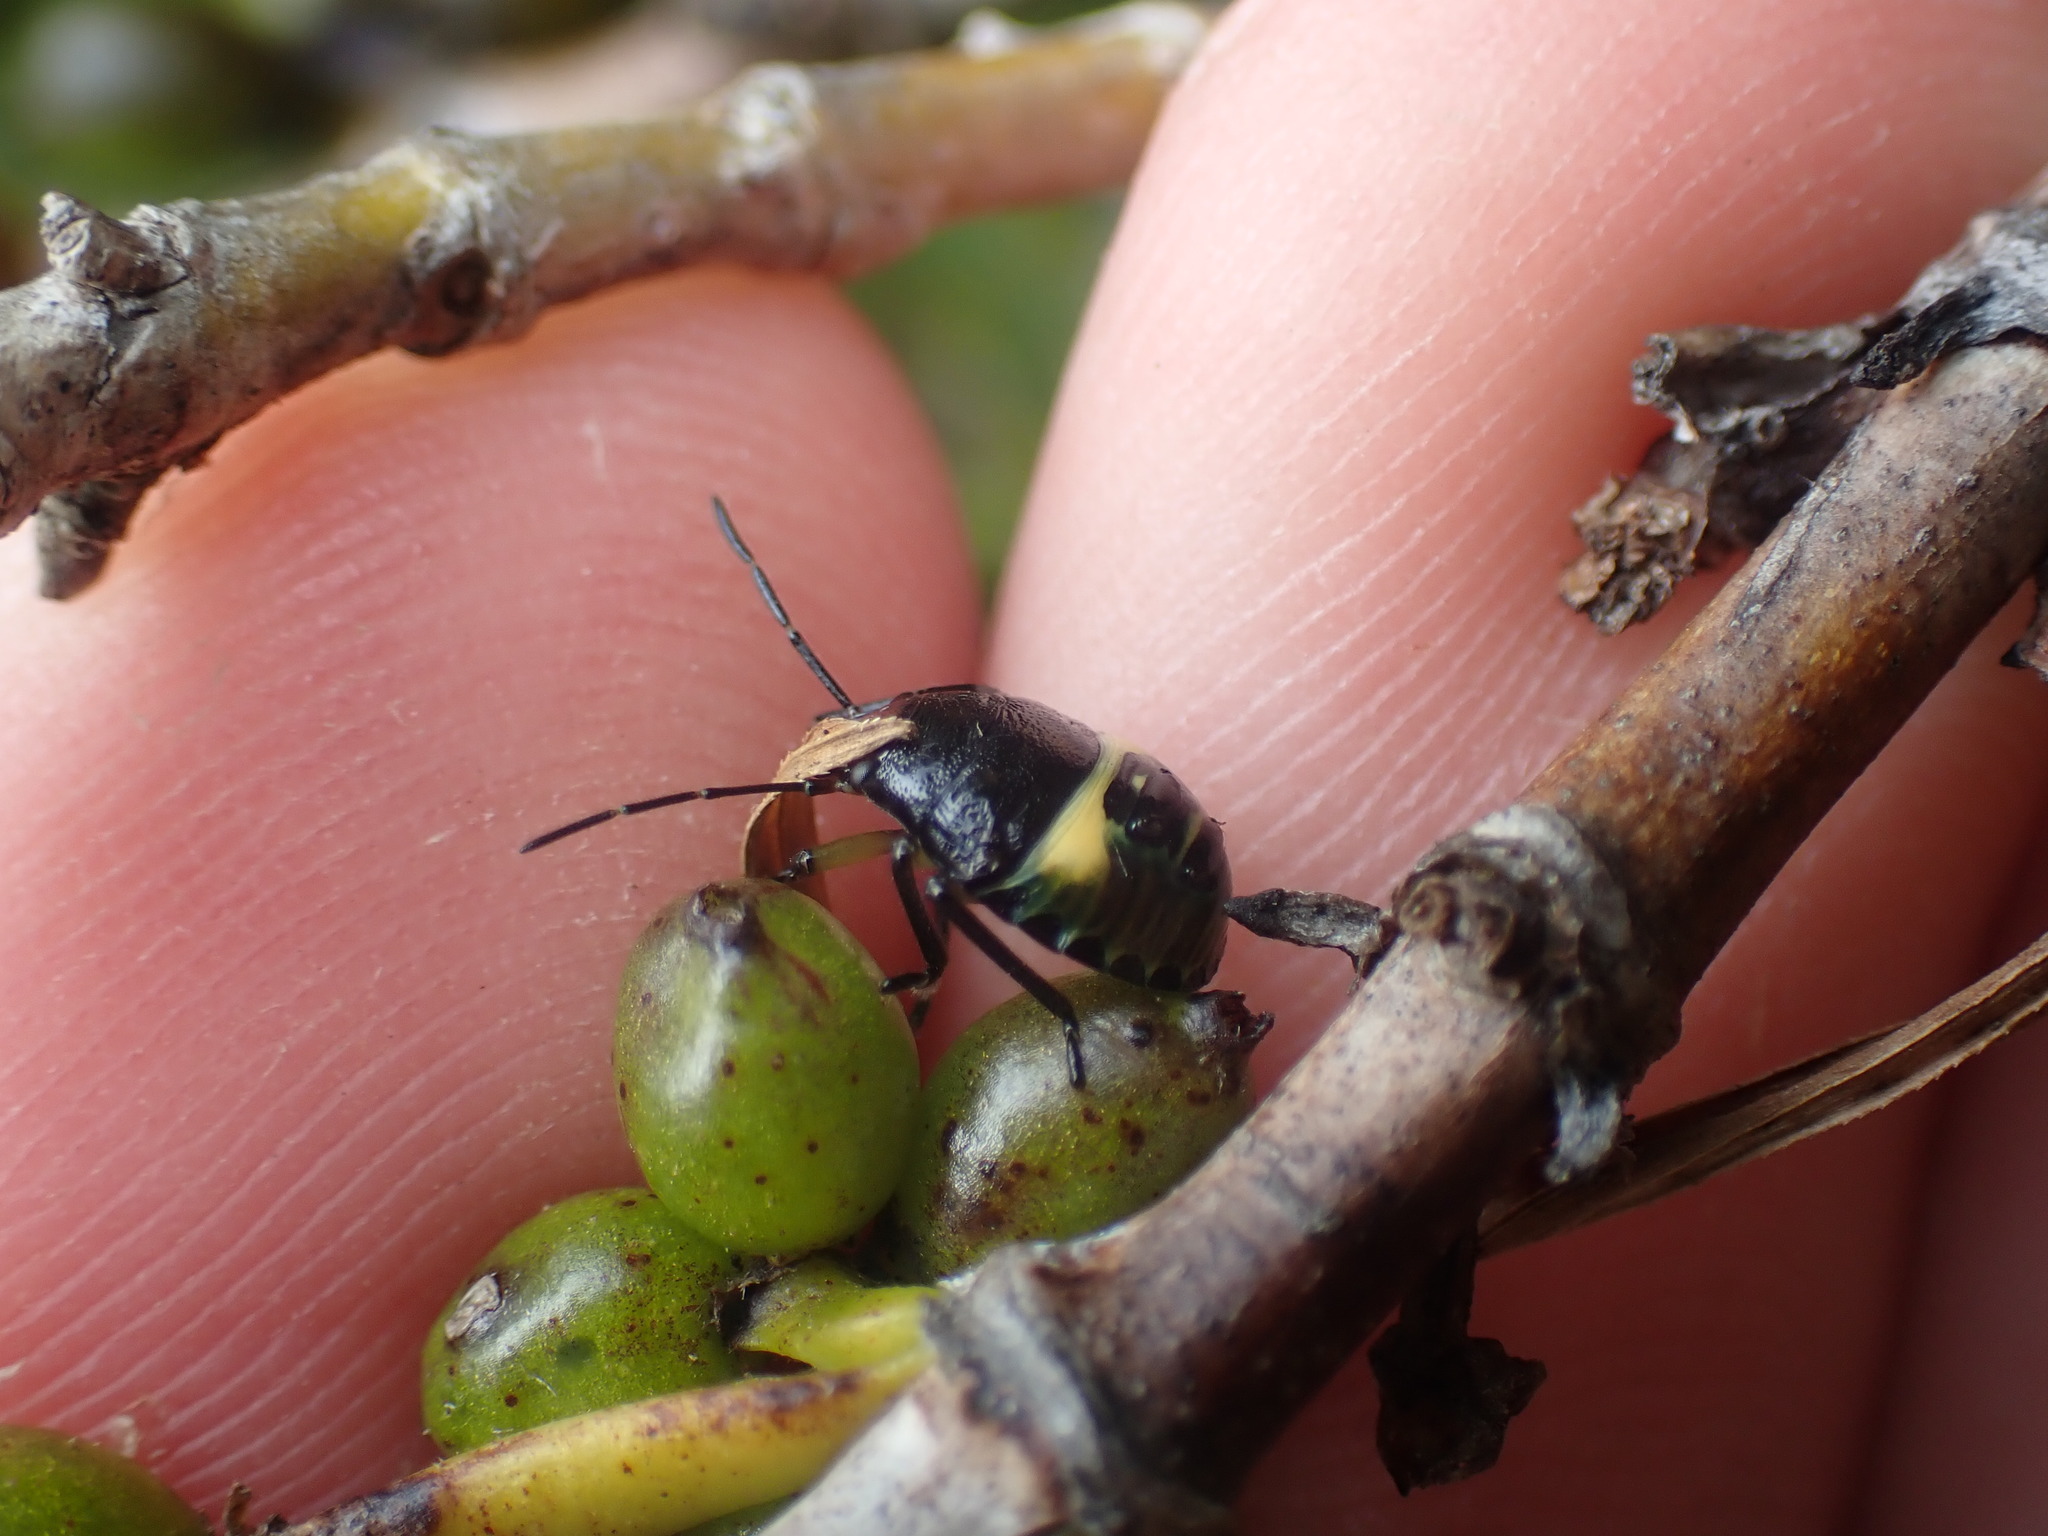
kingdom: Animalia
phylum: Arthropoda
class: Insecta
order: Hemiptera
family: Pentatomidae
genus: Glaucias
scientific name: Glaucias amyota
